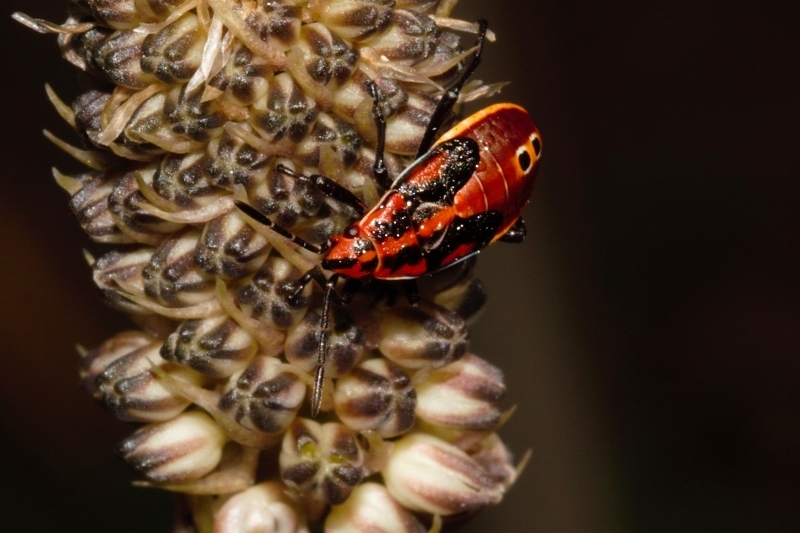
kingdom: Animalia
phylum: Arthropoda
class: Insecta
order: Hemiptera
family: Lygaeidae
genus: Spilostethus
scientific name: Spilostethus pandurus
